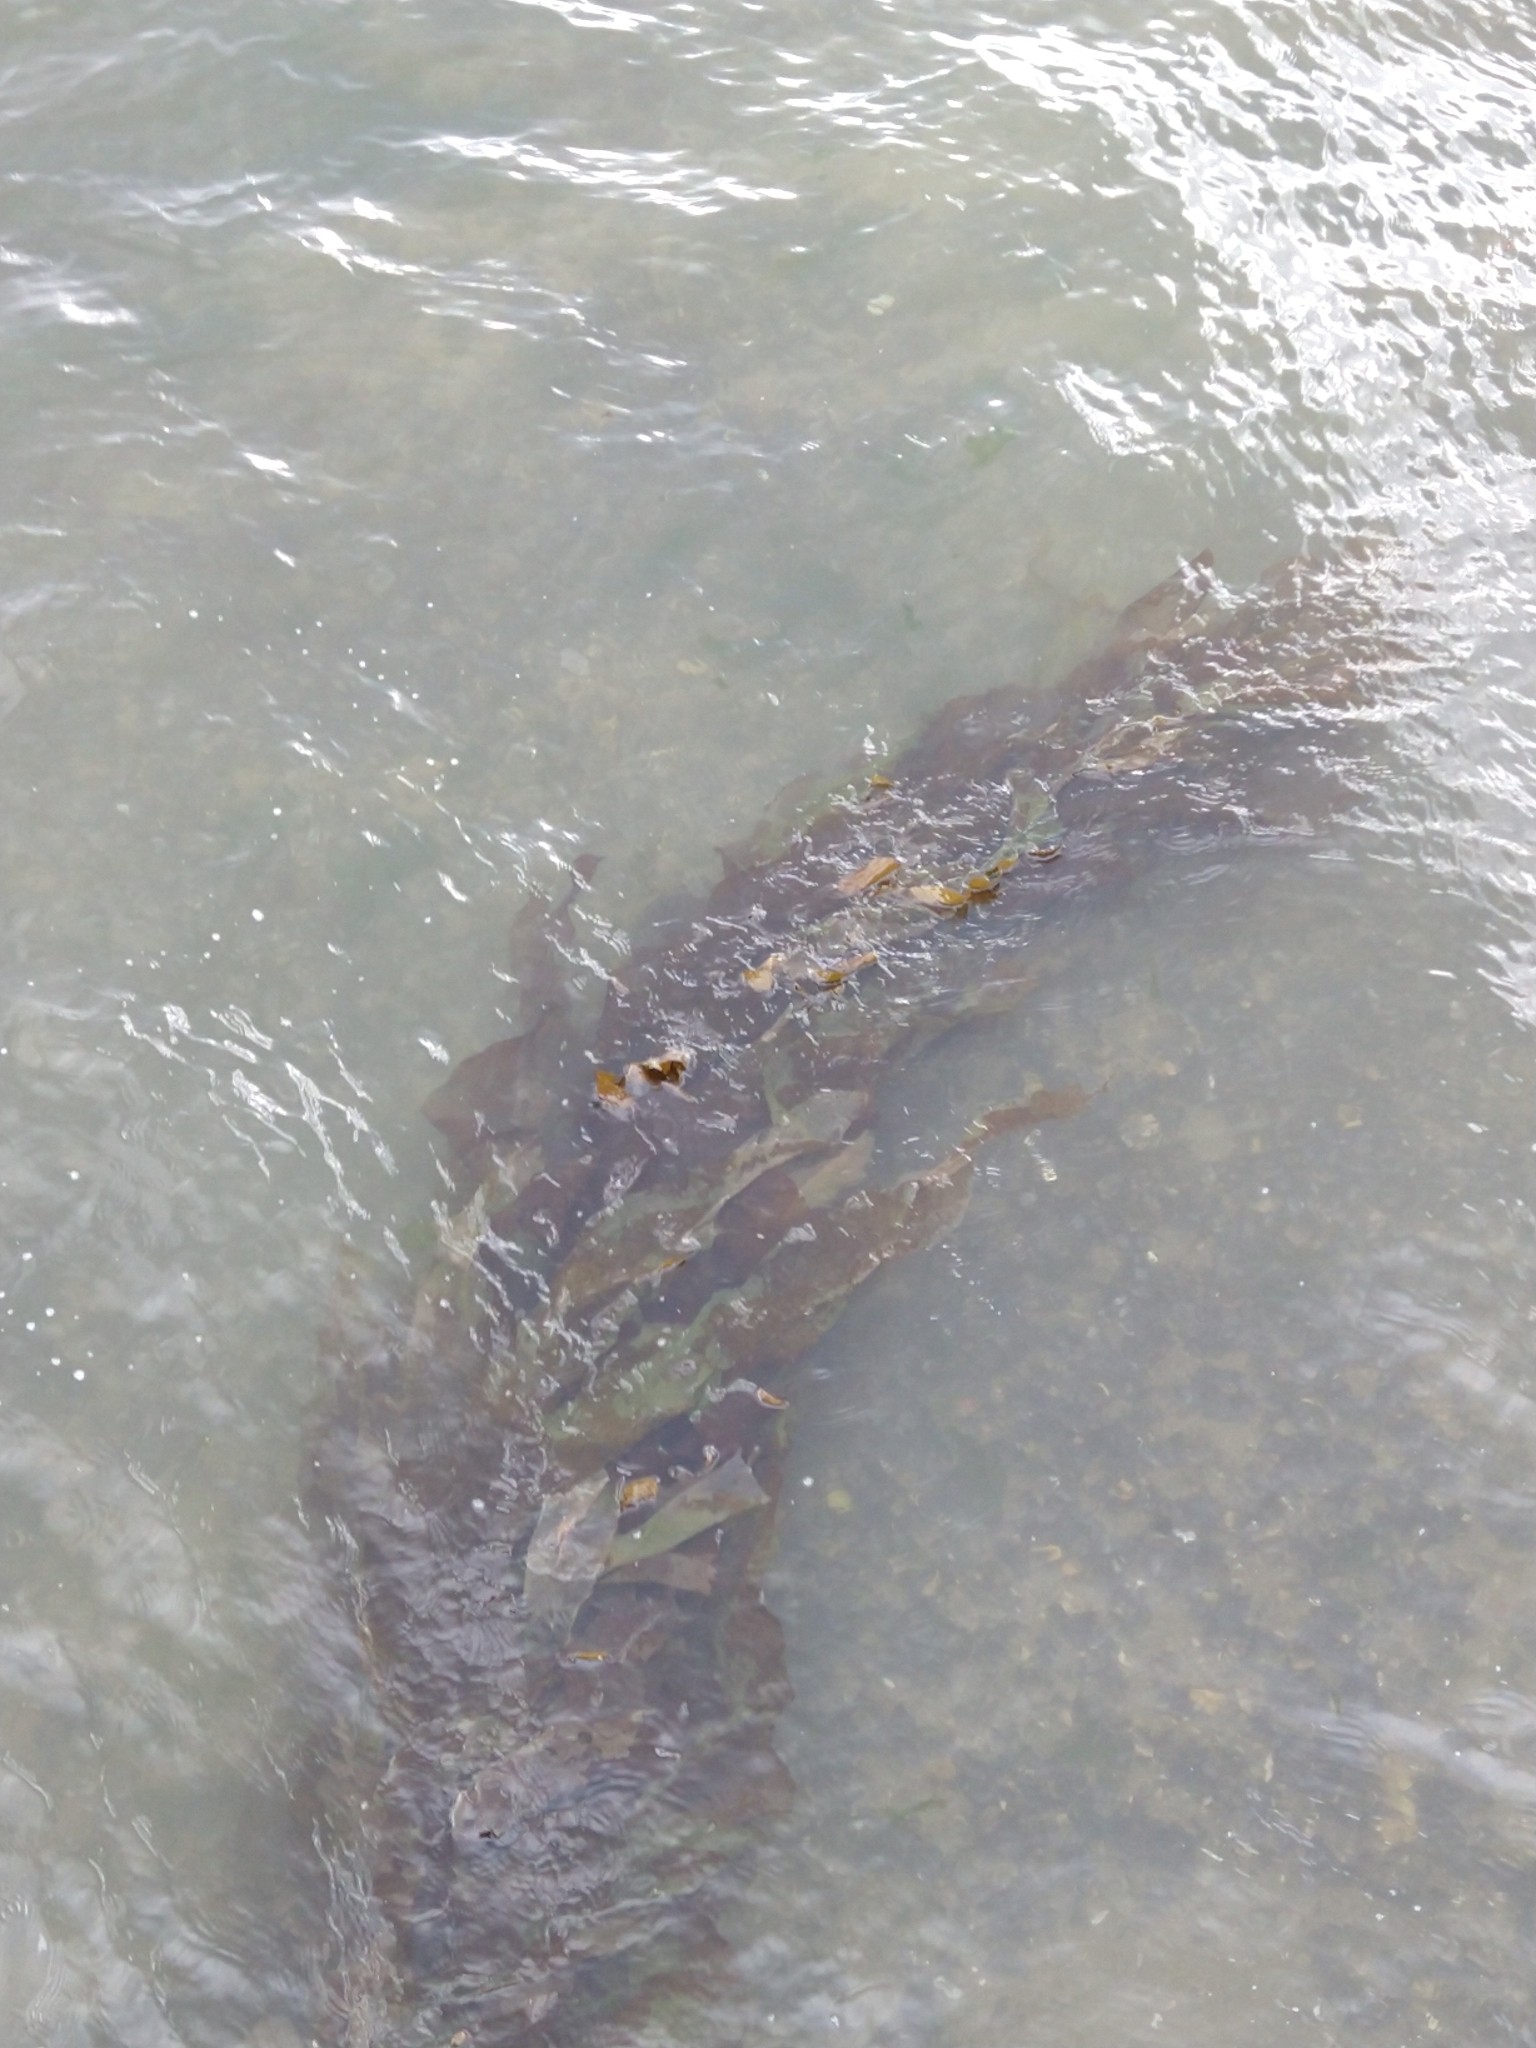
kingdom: Chromista
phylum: Ochrophyta
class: Phaeophyceae
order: Laminariales
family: Laminariaceae
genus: Macrocystis
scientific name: Macrocystis pyrifera
